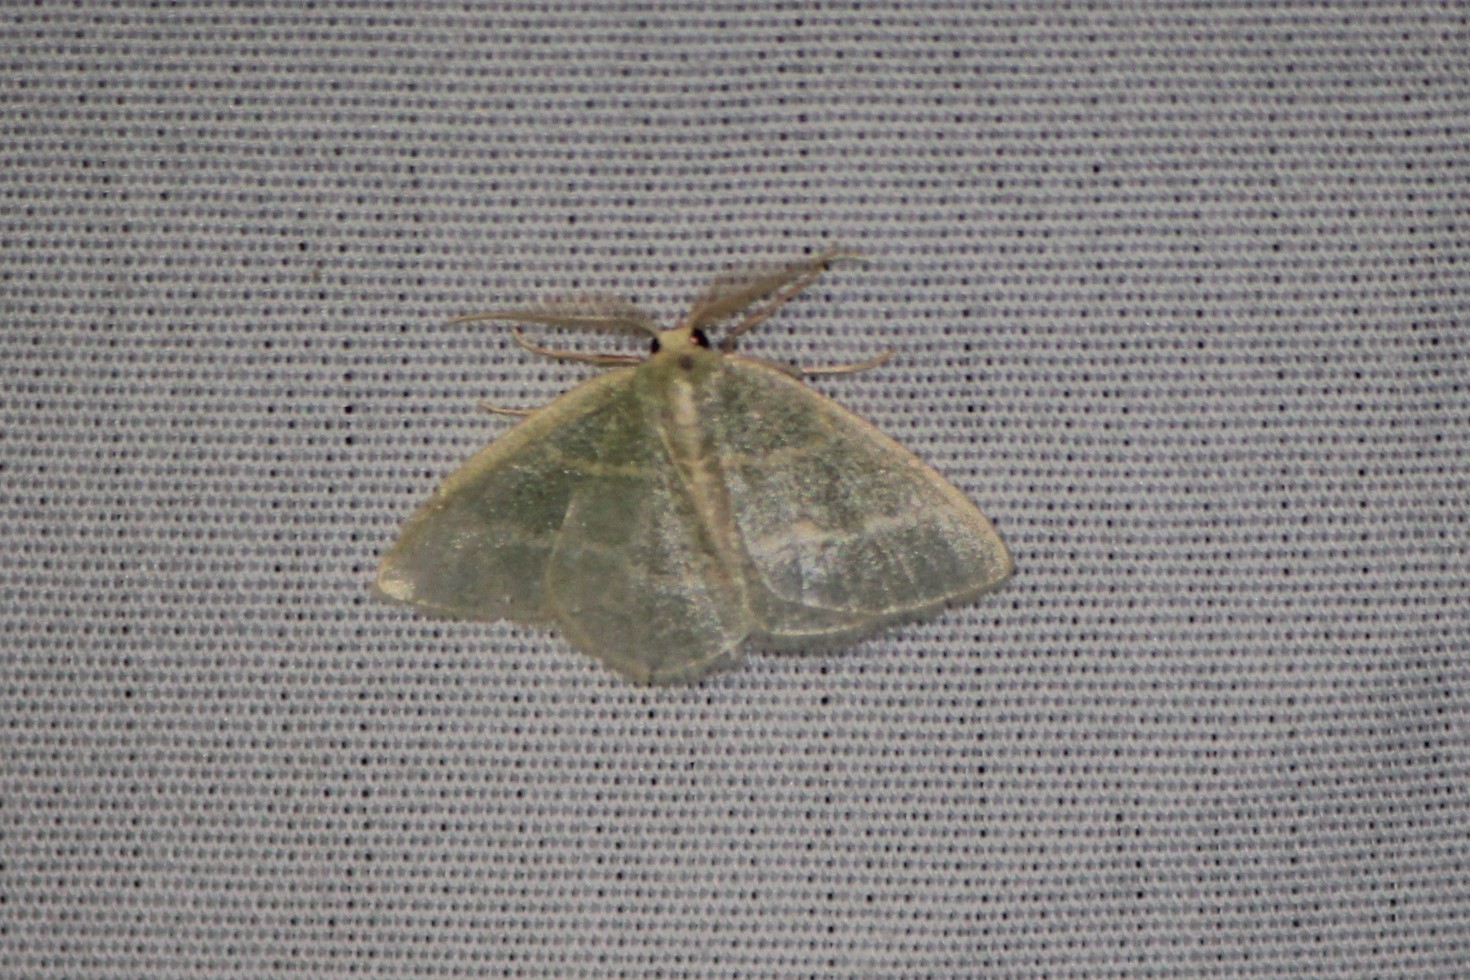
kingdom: Animalia
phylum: Arthropoda
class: Insecta
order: Lepidoptera
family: Geometridae
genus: Chlorochlamys
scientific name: Chlorochlamys chloroleucaria
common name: Blackberry looper
